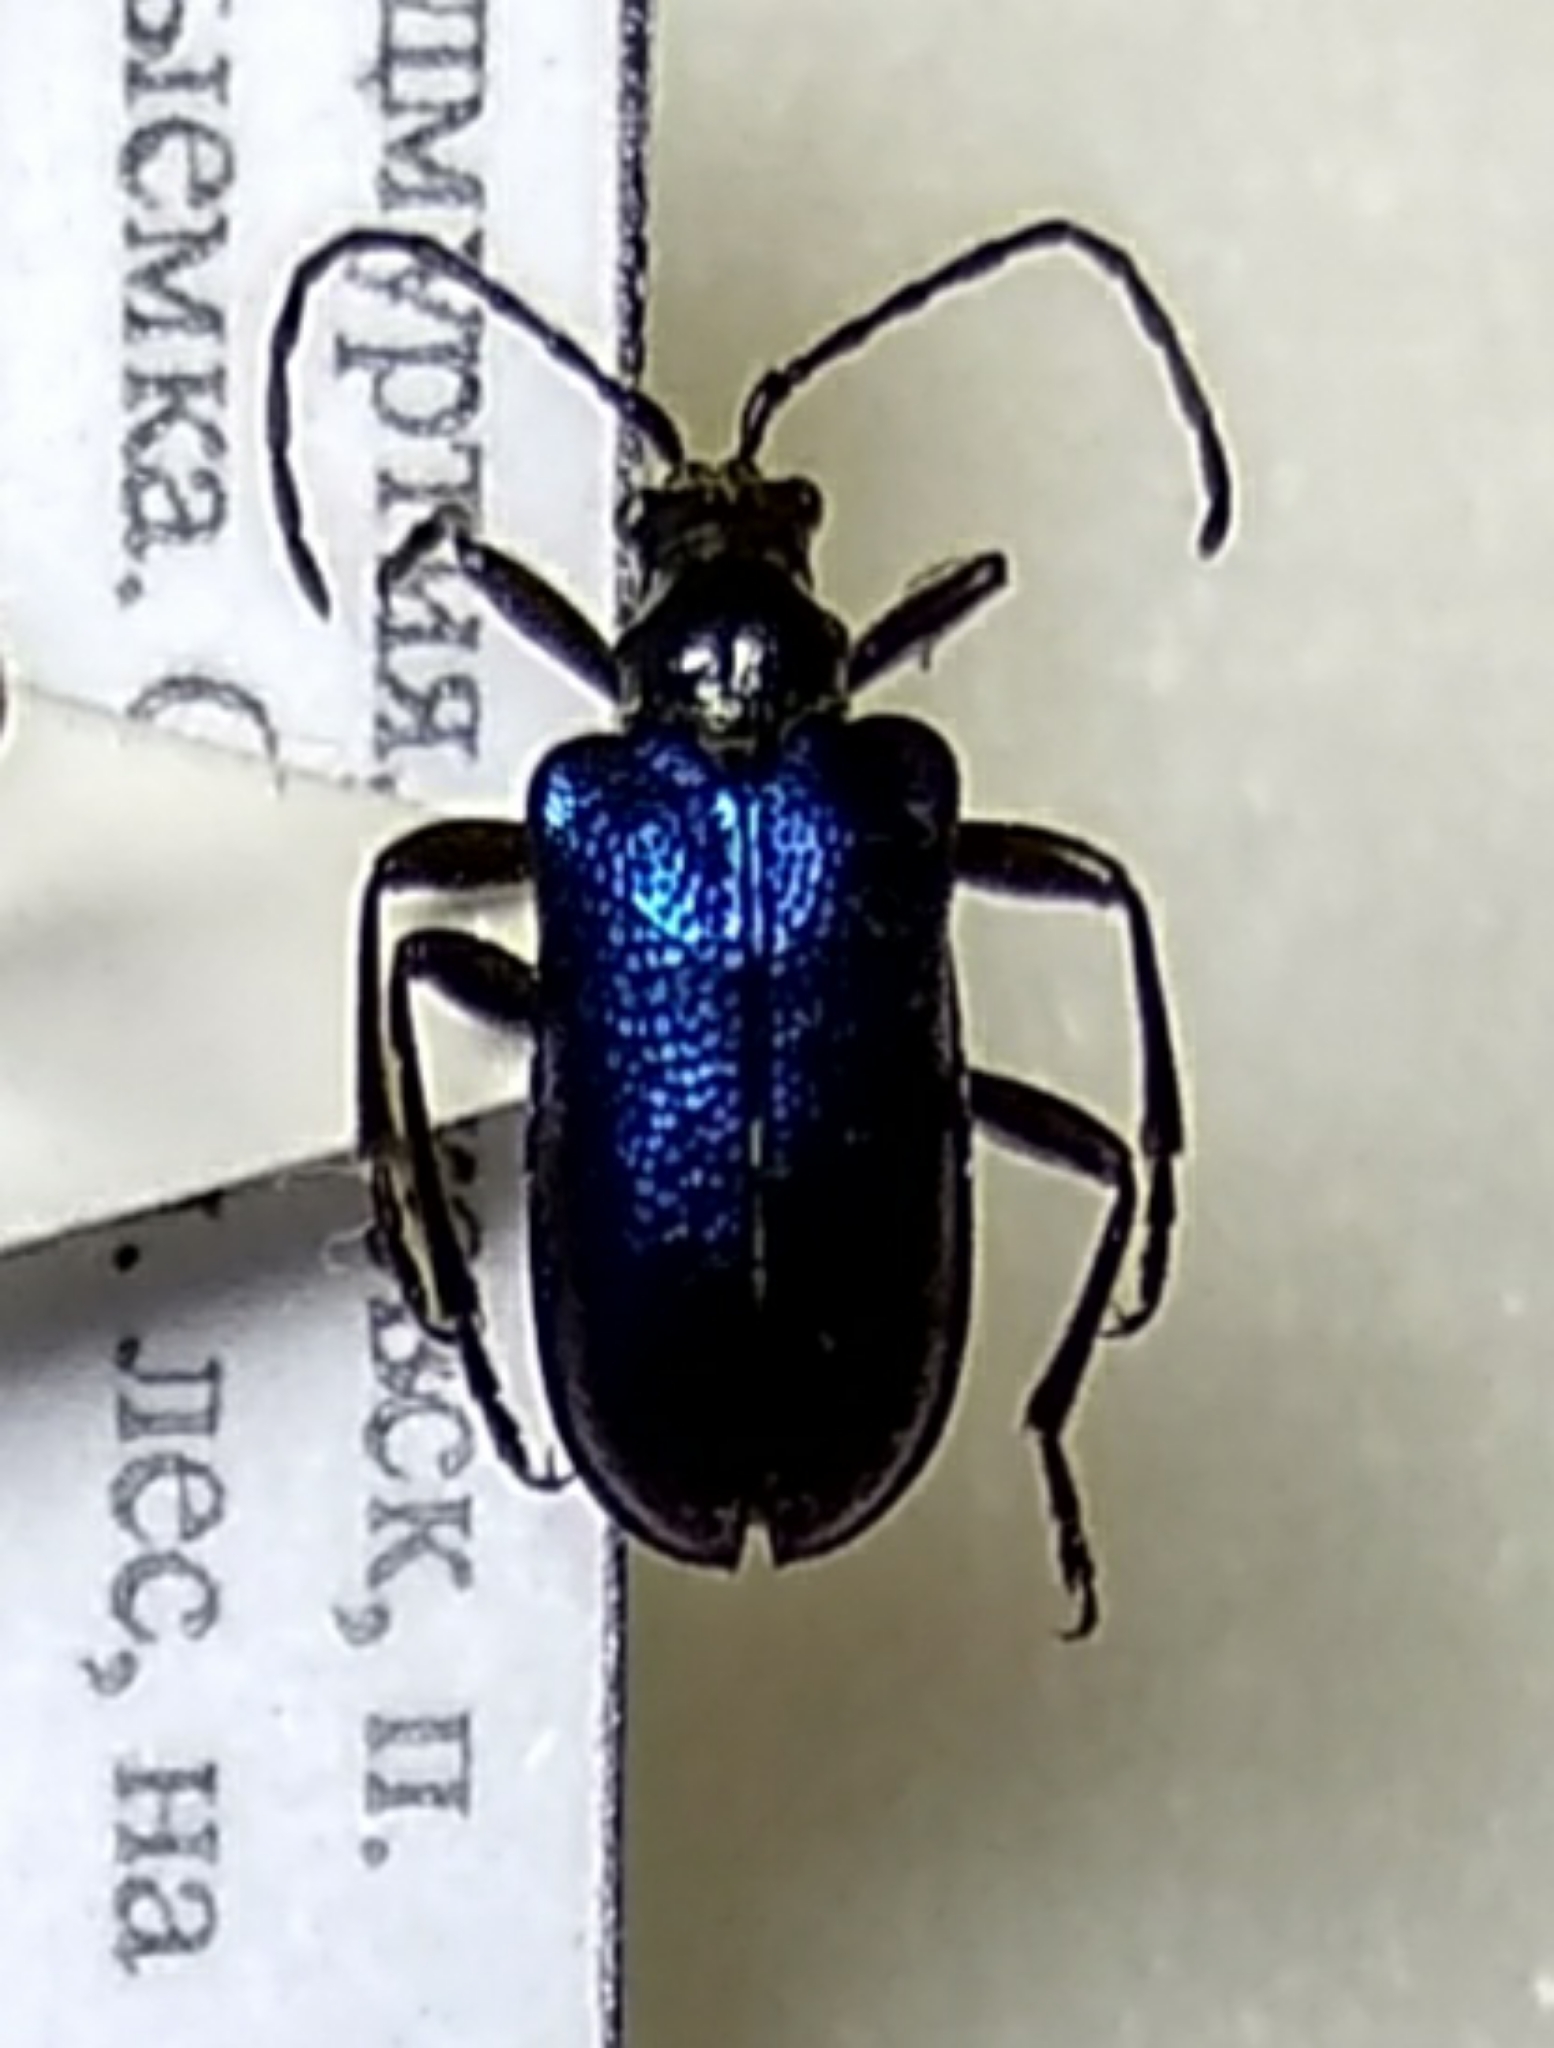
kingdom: Animalia
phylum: Arthropoda
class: Insecta
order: Coleoptera
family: Cerambycidae
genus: Gaurotes
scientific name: Gaurotes virginea
